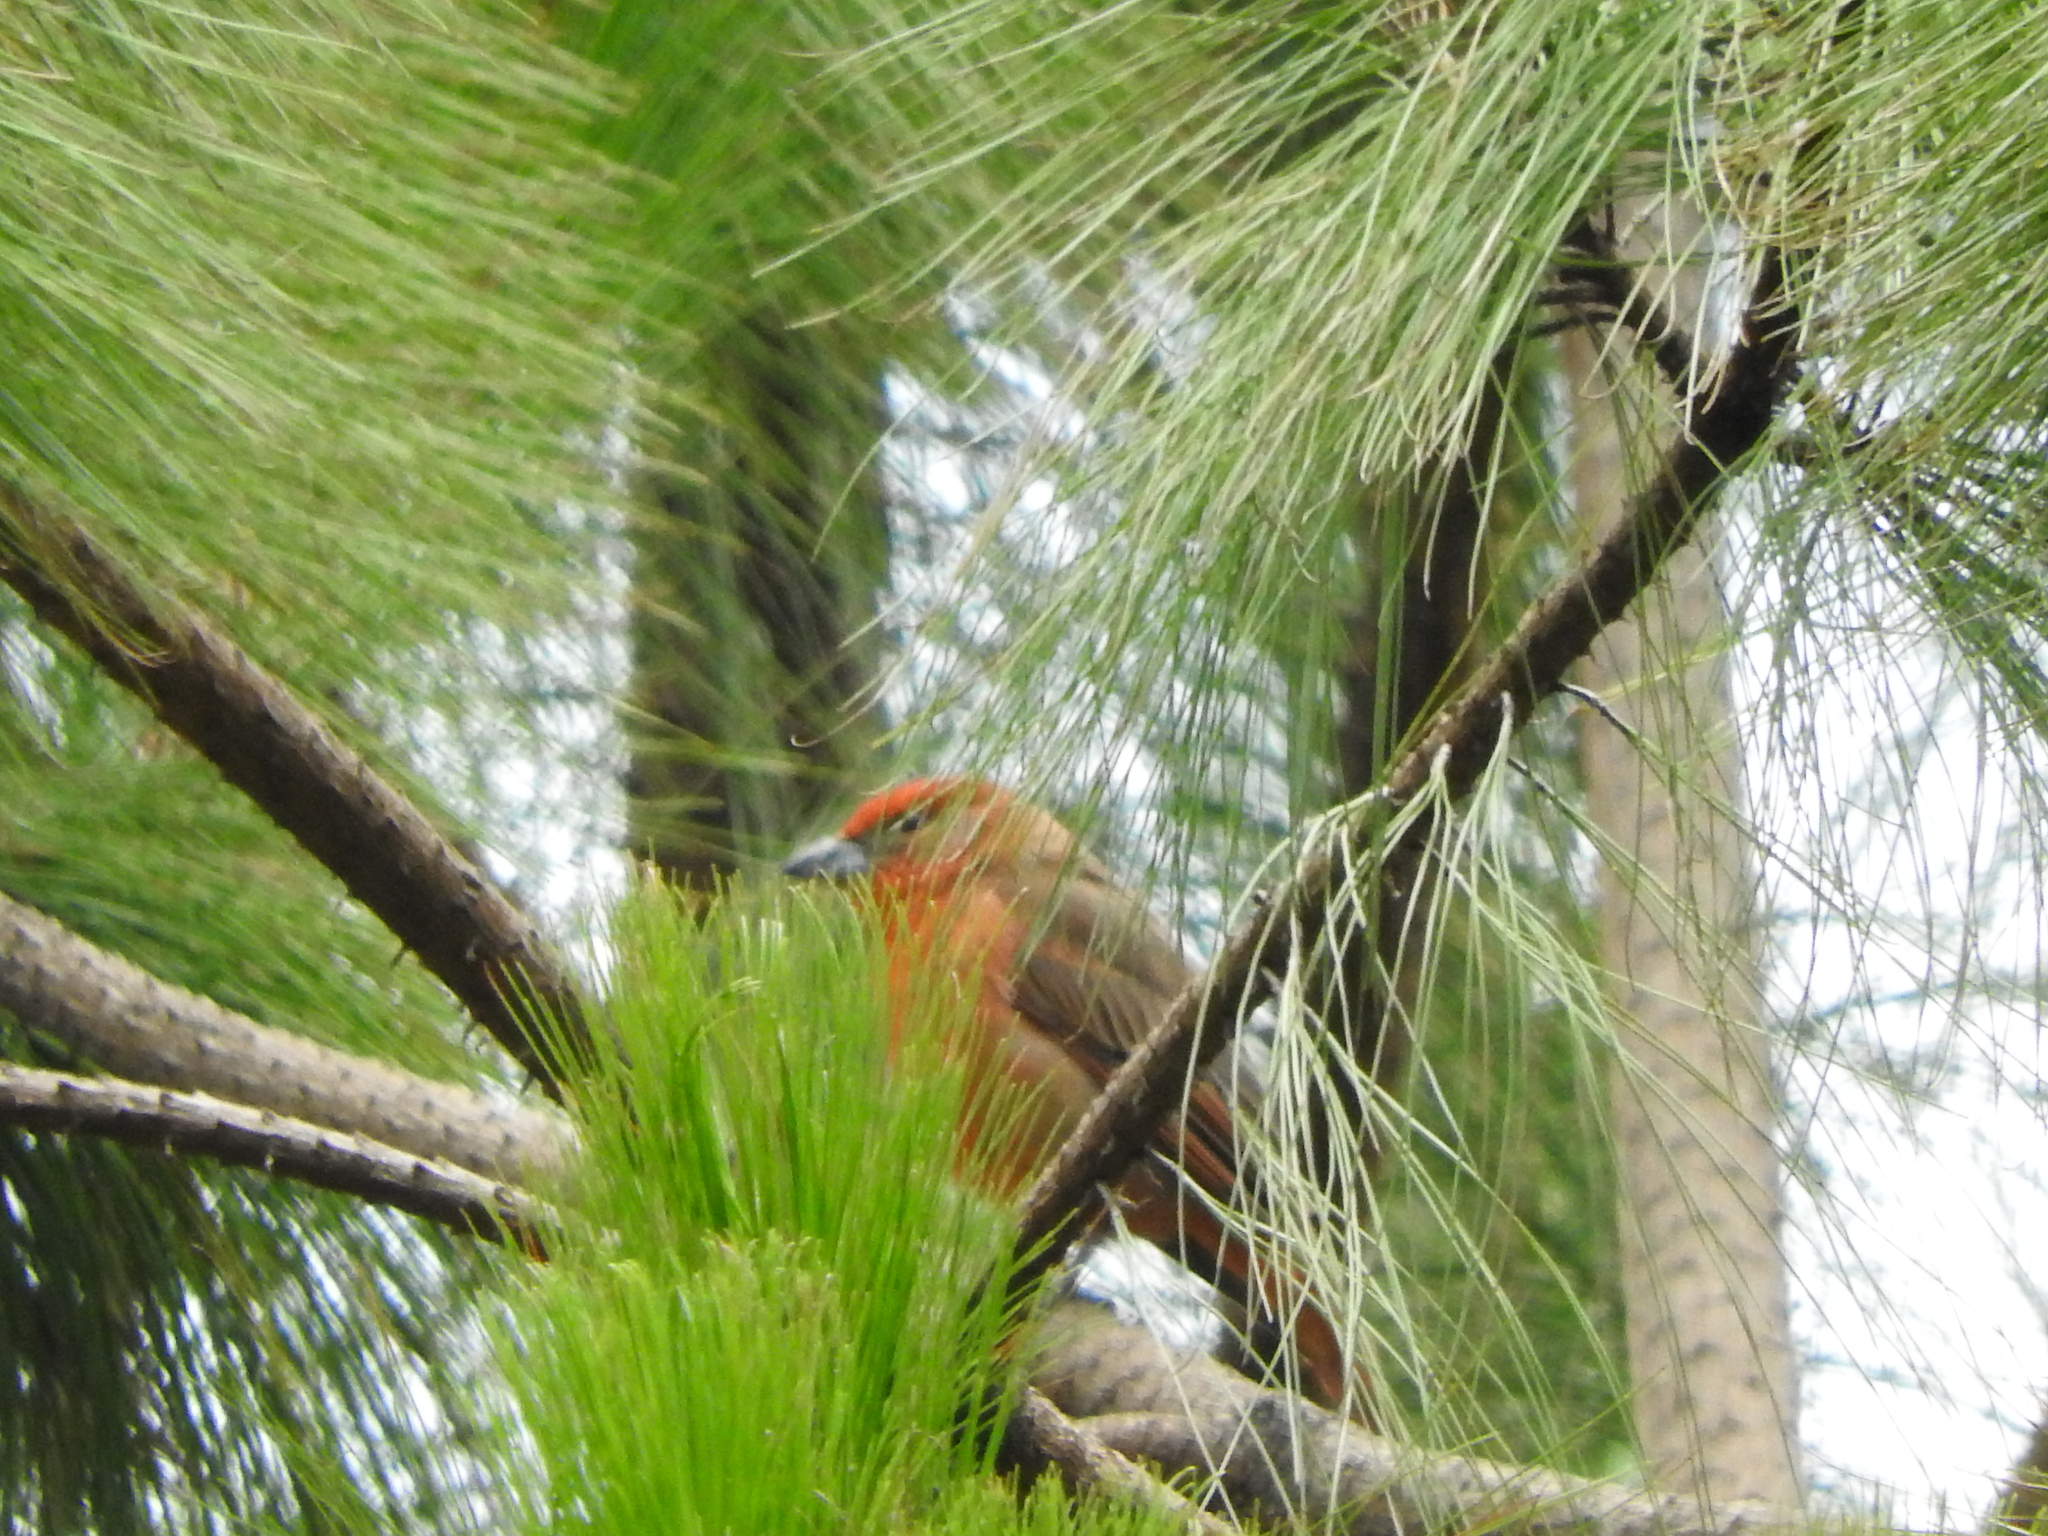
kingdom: Animalia
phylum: Chordata
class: Aves
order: Passeriformes
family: Cardinalidae
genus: Piranga
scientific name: Piranga flava
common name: Red tanager
